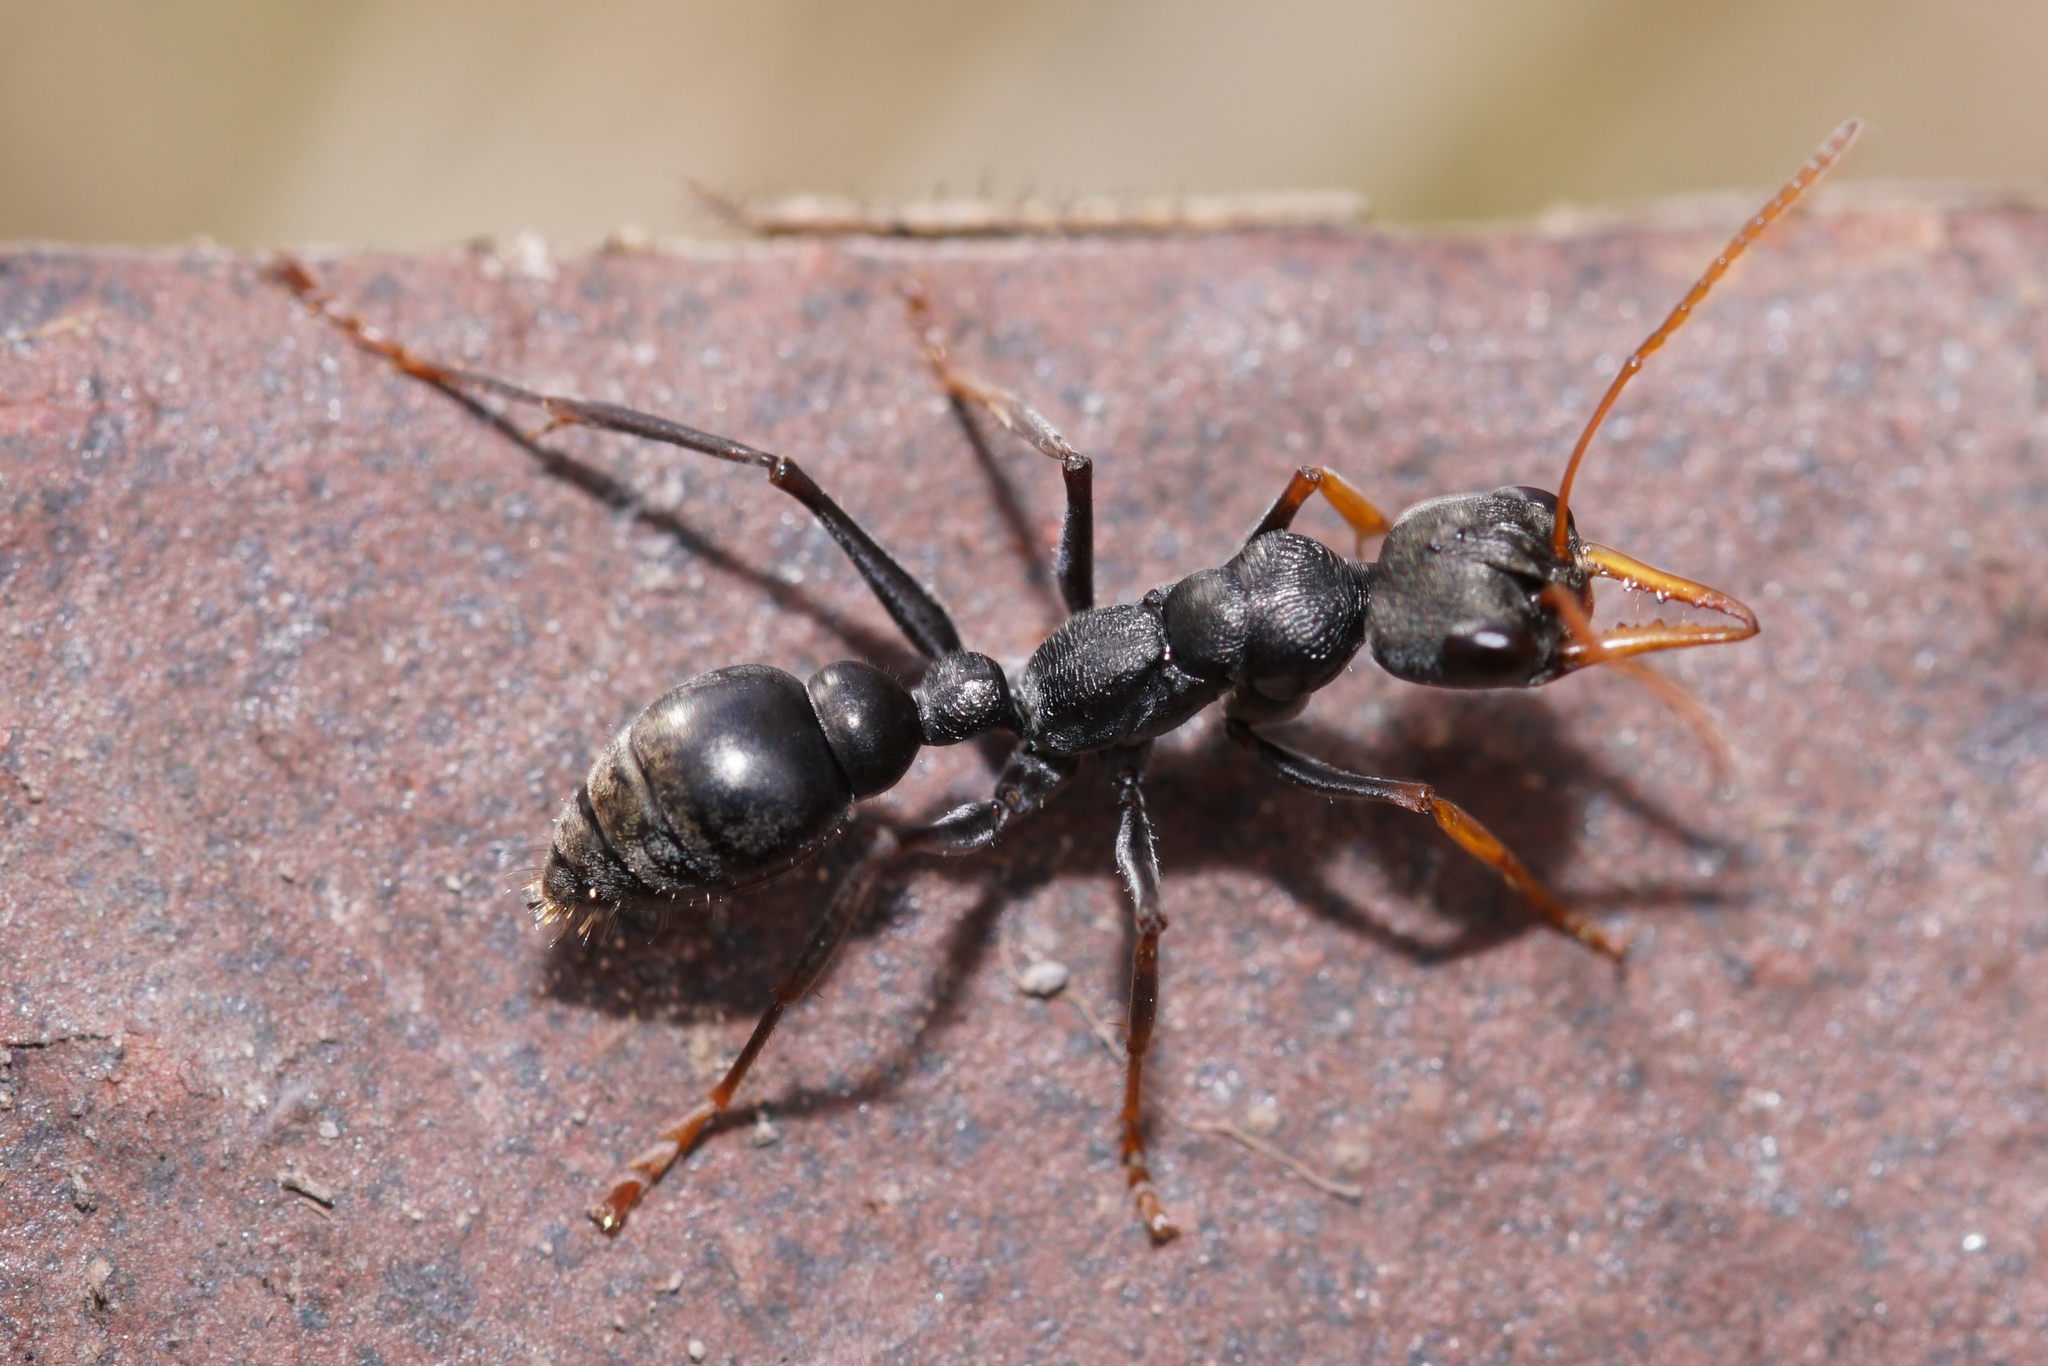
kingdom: Animalia
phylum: Arthropoda
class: Insecta
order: Hymenoptera
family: Formicidae
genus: Myrmecia
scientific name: Myrmecia pilosula
